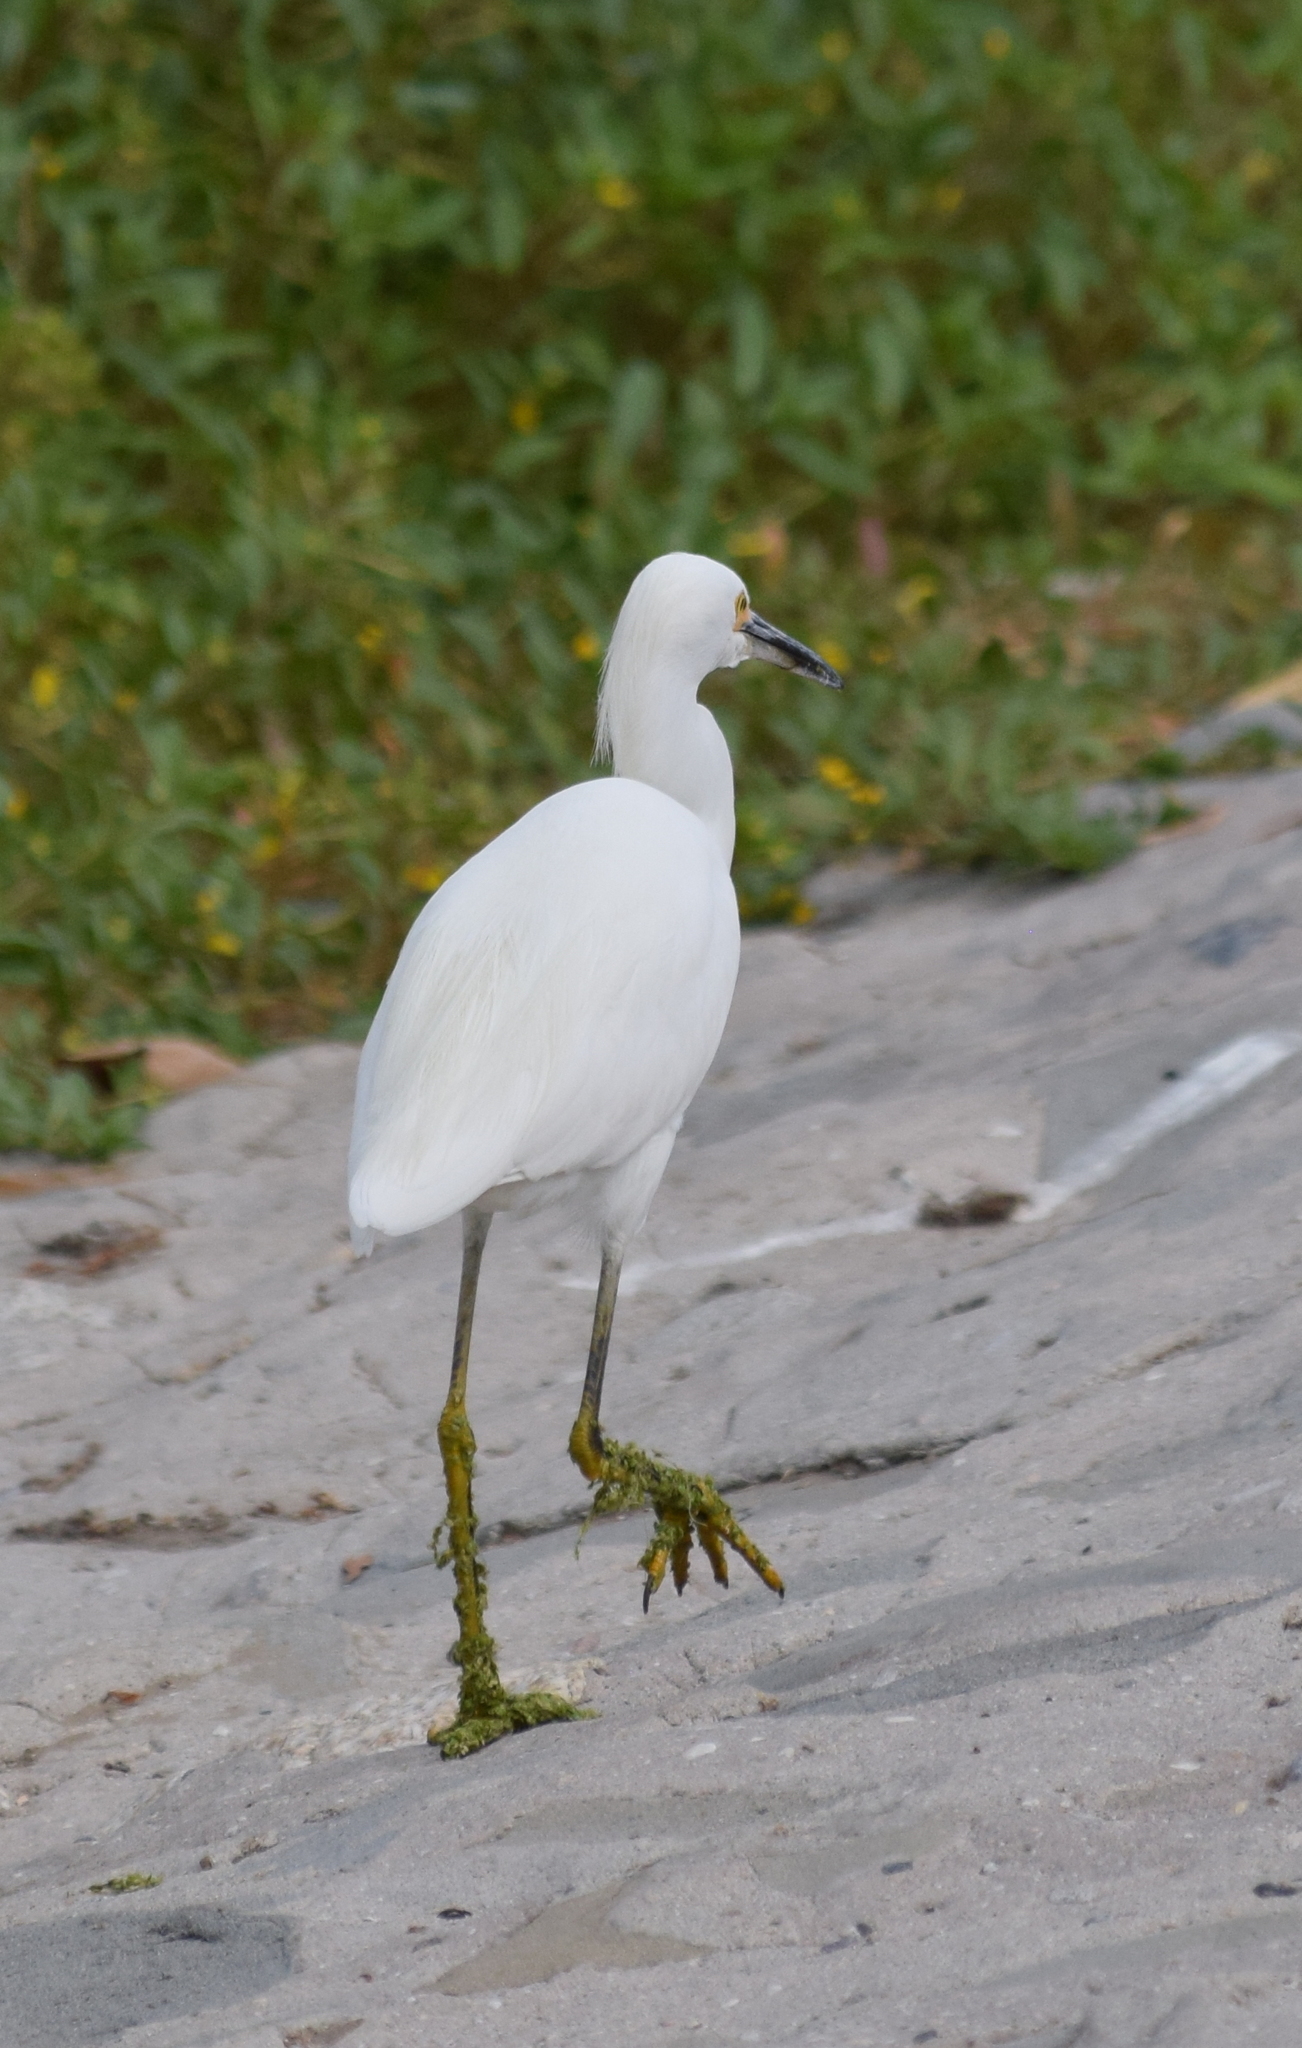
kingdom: Animalia
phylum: Chordata
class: Aves
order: Pelecaniformes
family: Ardeidae
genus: Egretta
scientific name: Egretta thula
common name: Snowy egret
